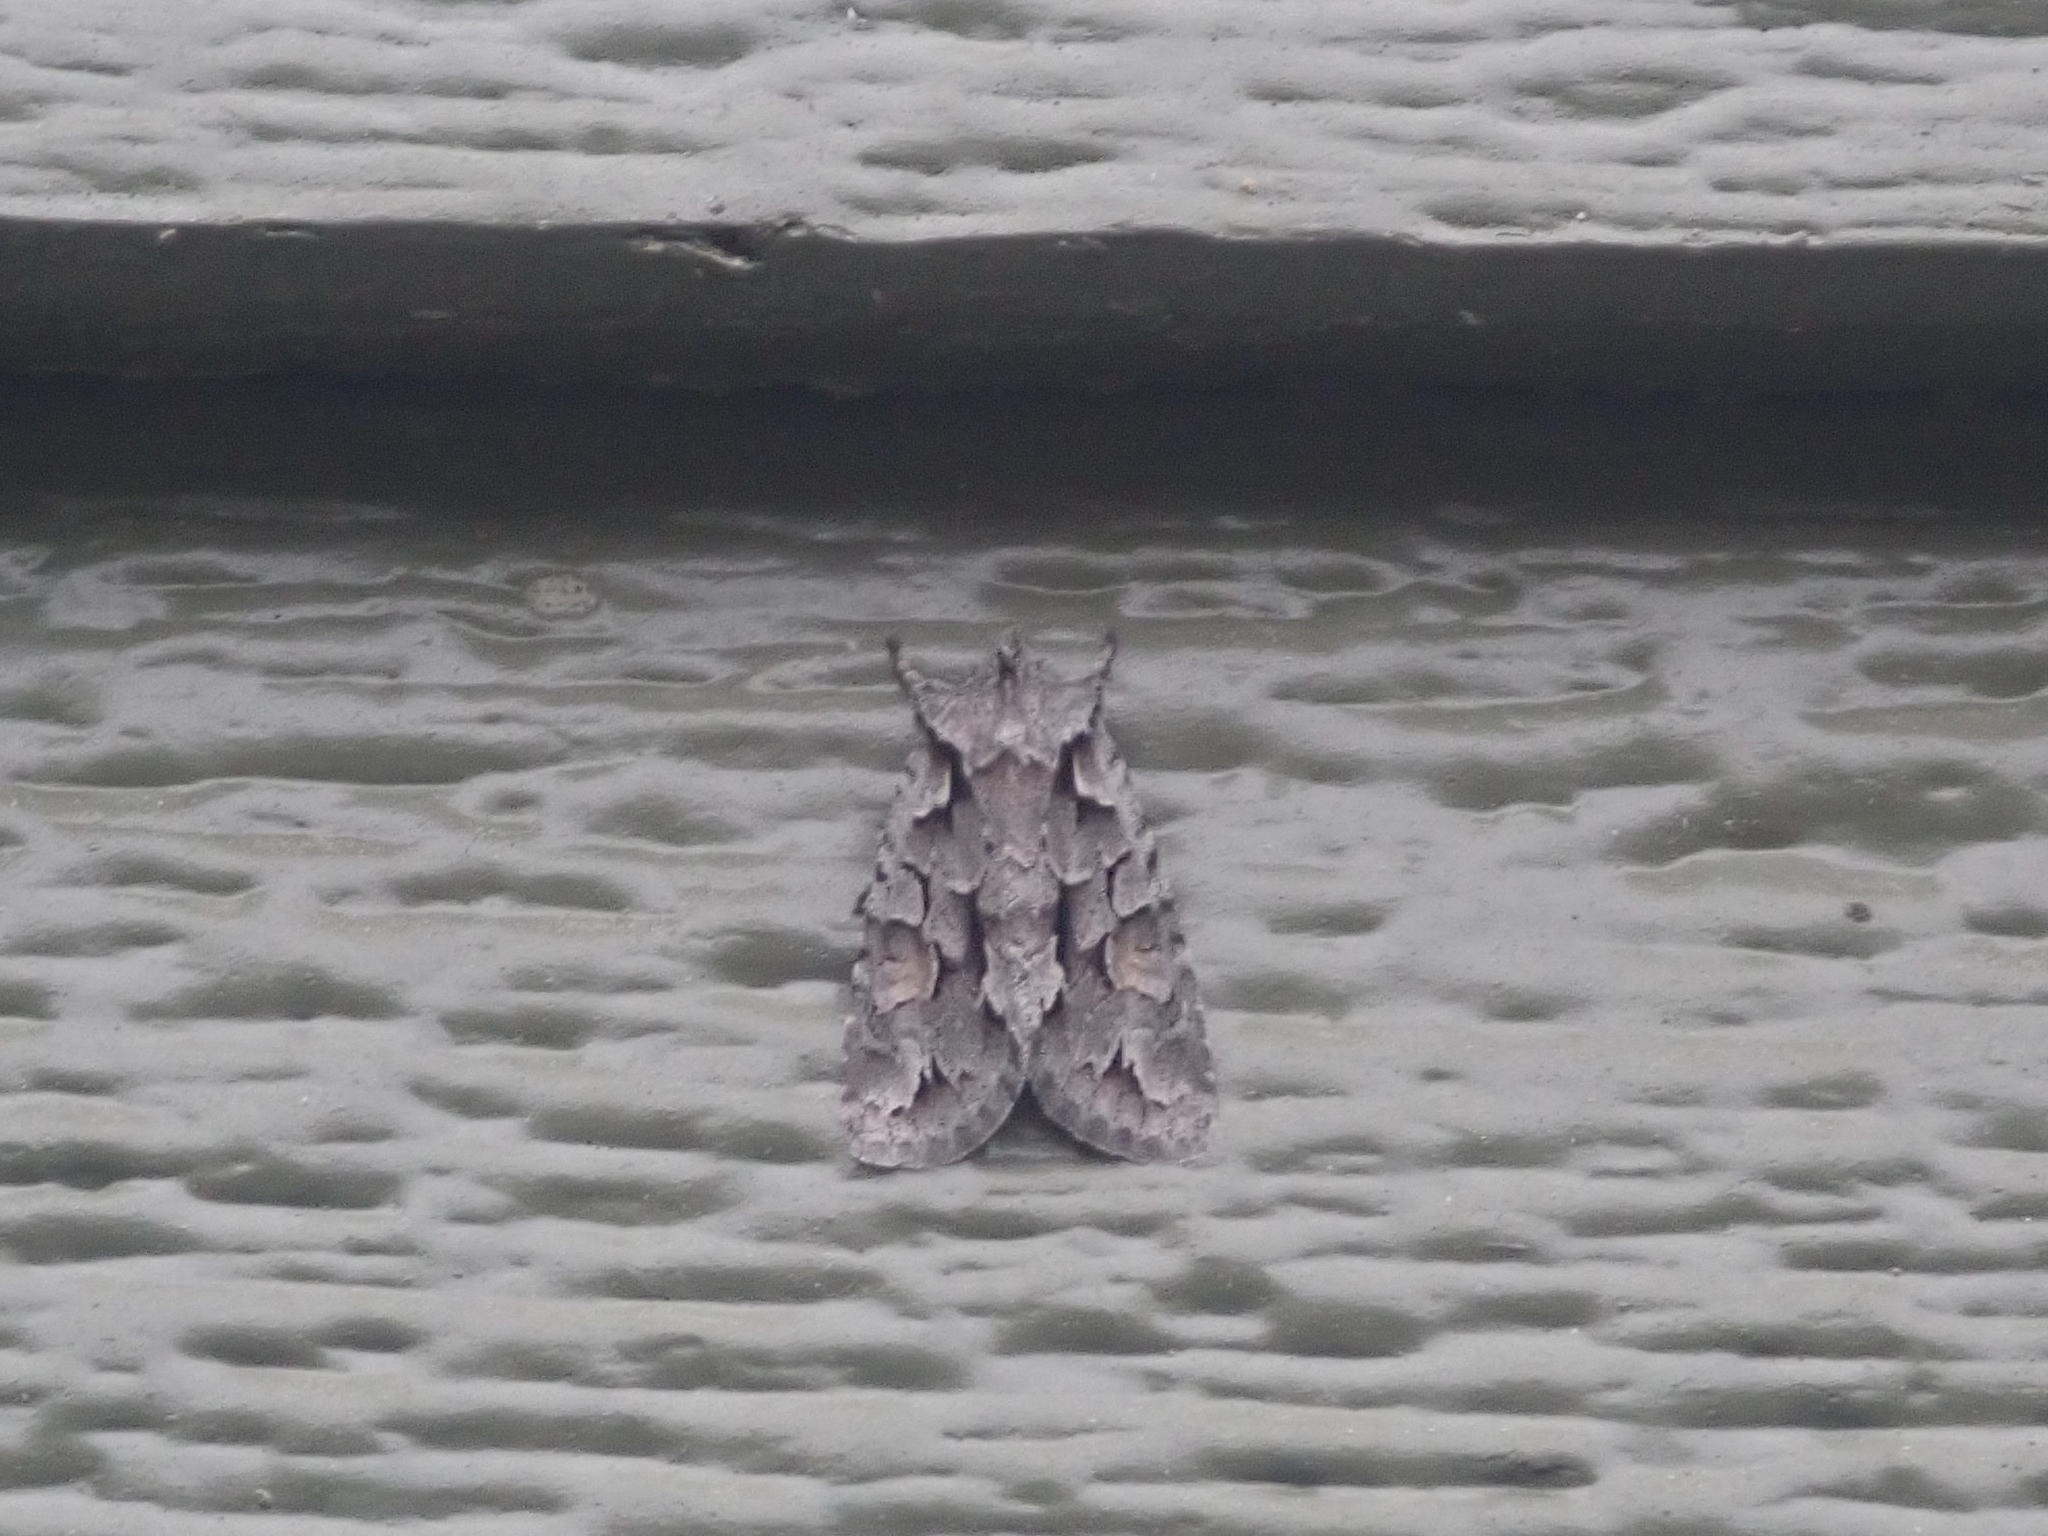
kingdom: Animalia
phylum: Arthropoda
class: Insecta
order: Lepidoptera
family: Noctuidae
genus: Lithophane
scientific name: Lithophane thaxteri
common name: Nonconformist
